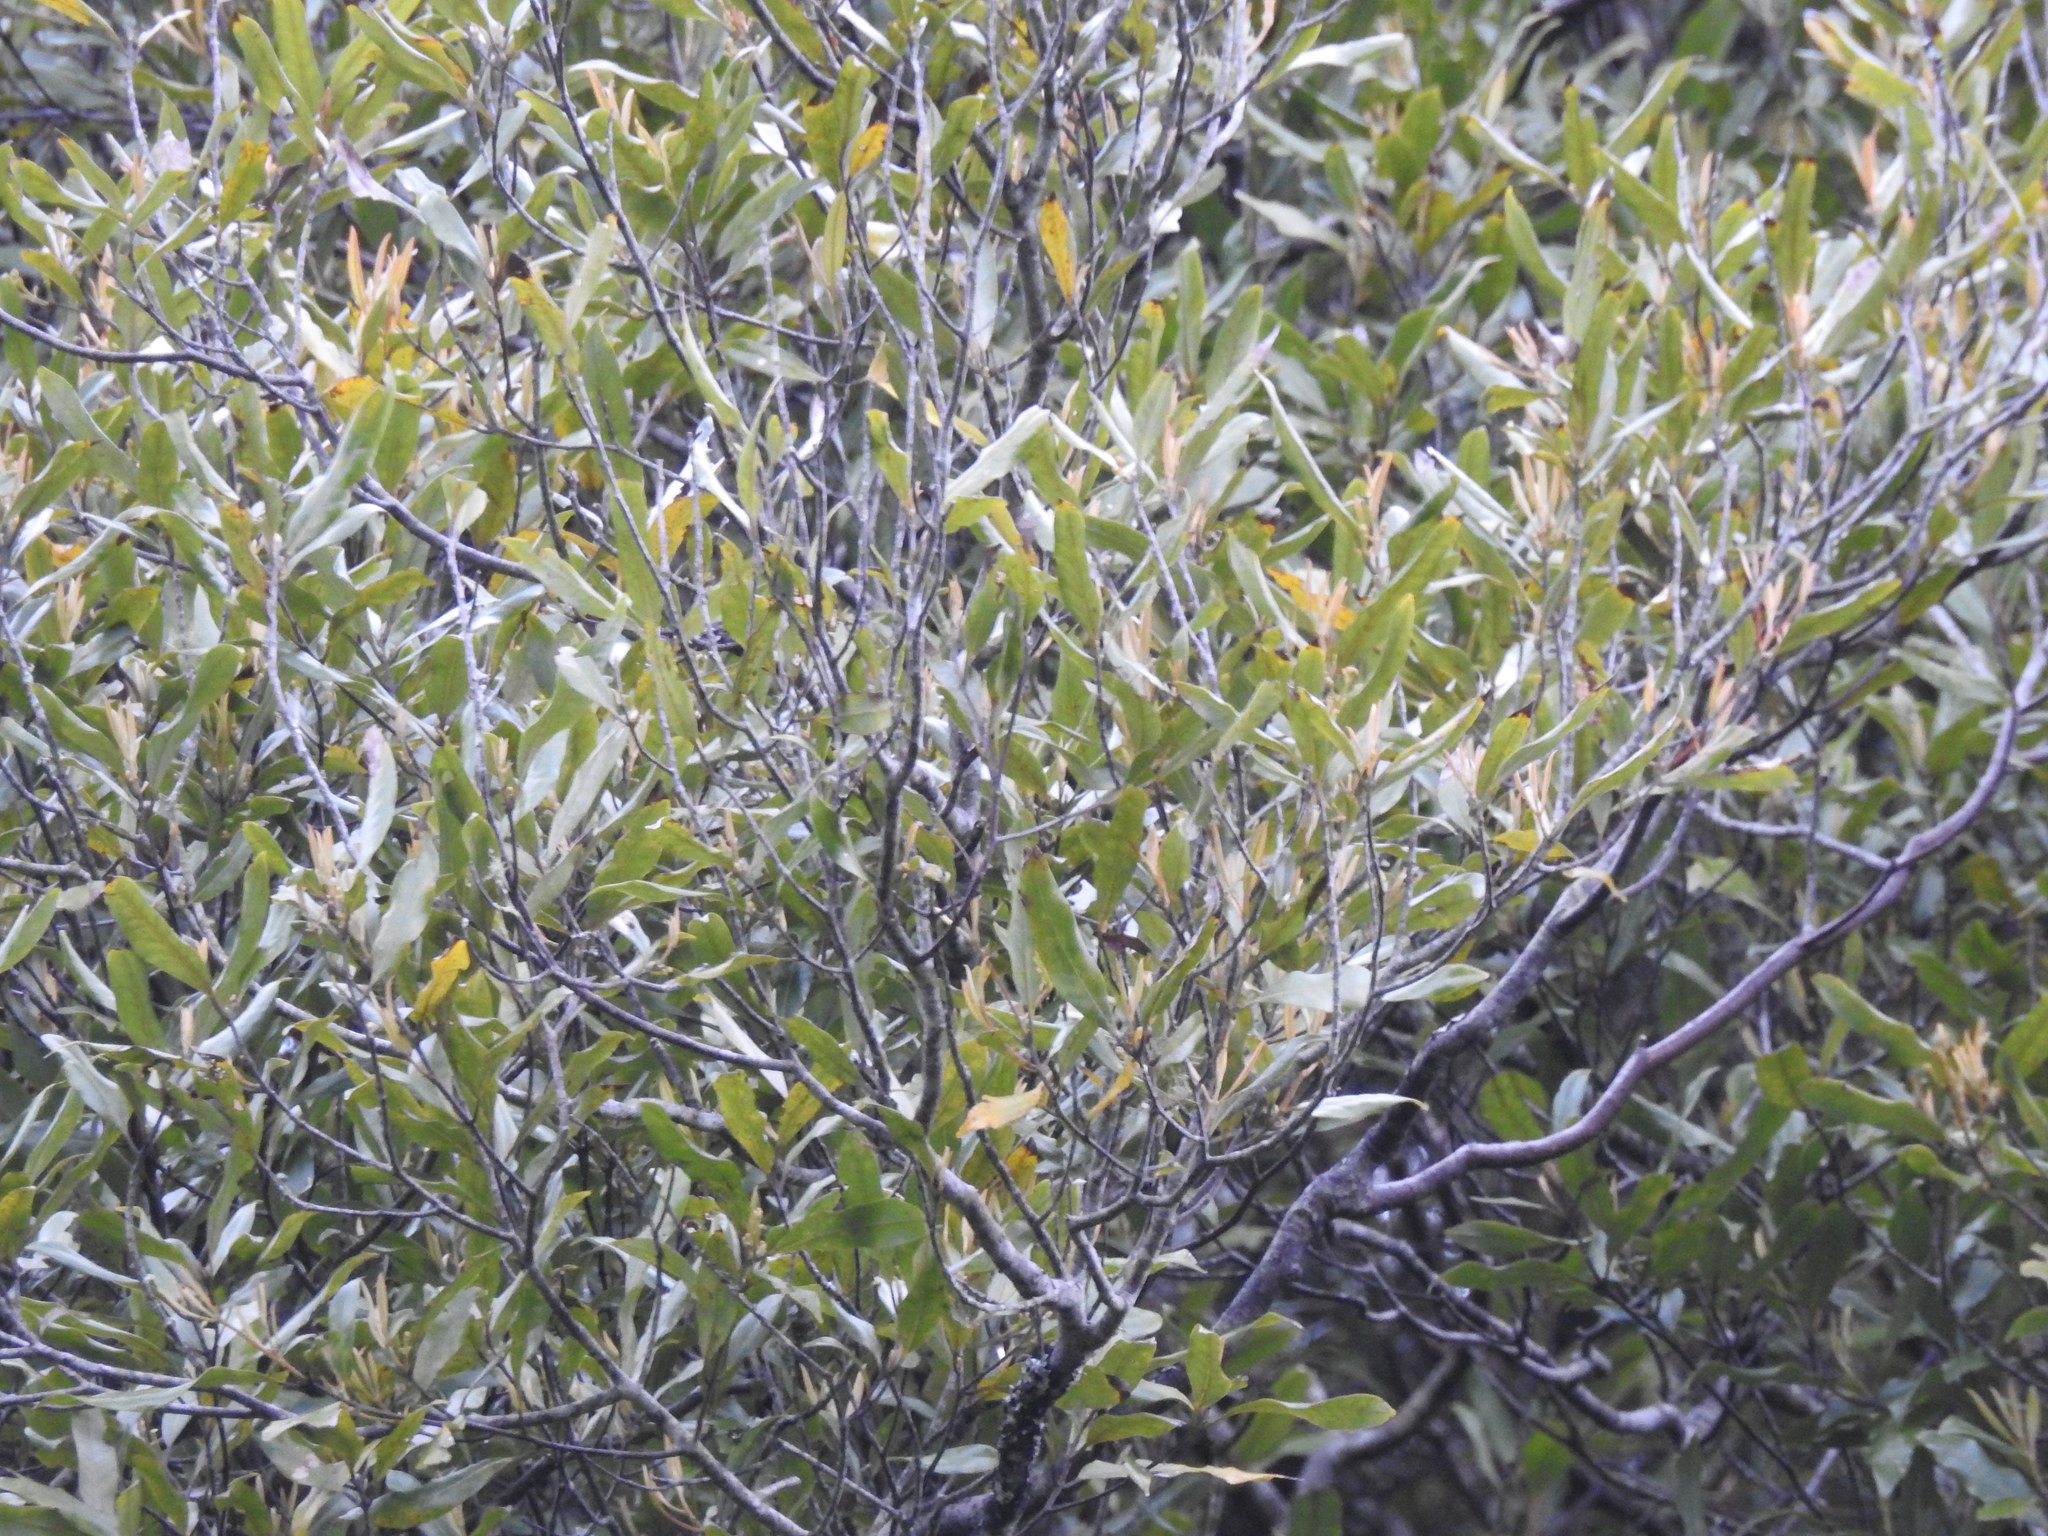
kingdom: Plantae
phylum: Tracheophyta
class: Magnoliopsida
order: Laurales
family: Lauraceae
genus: Beilschmiedia
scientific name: Beilschmiedia tawa
